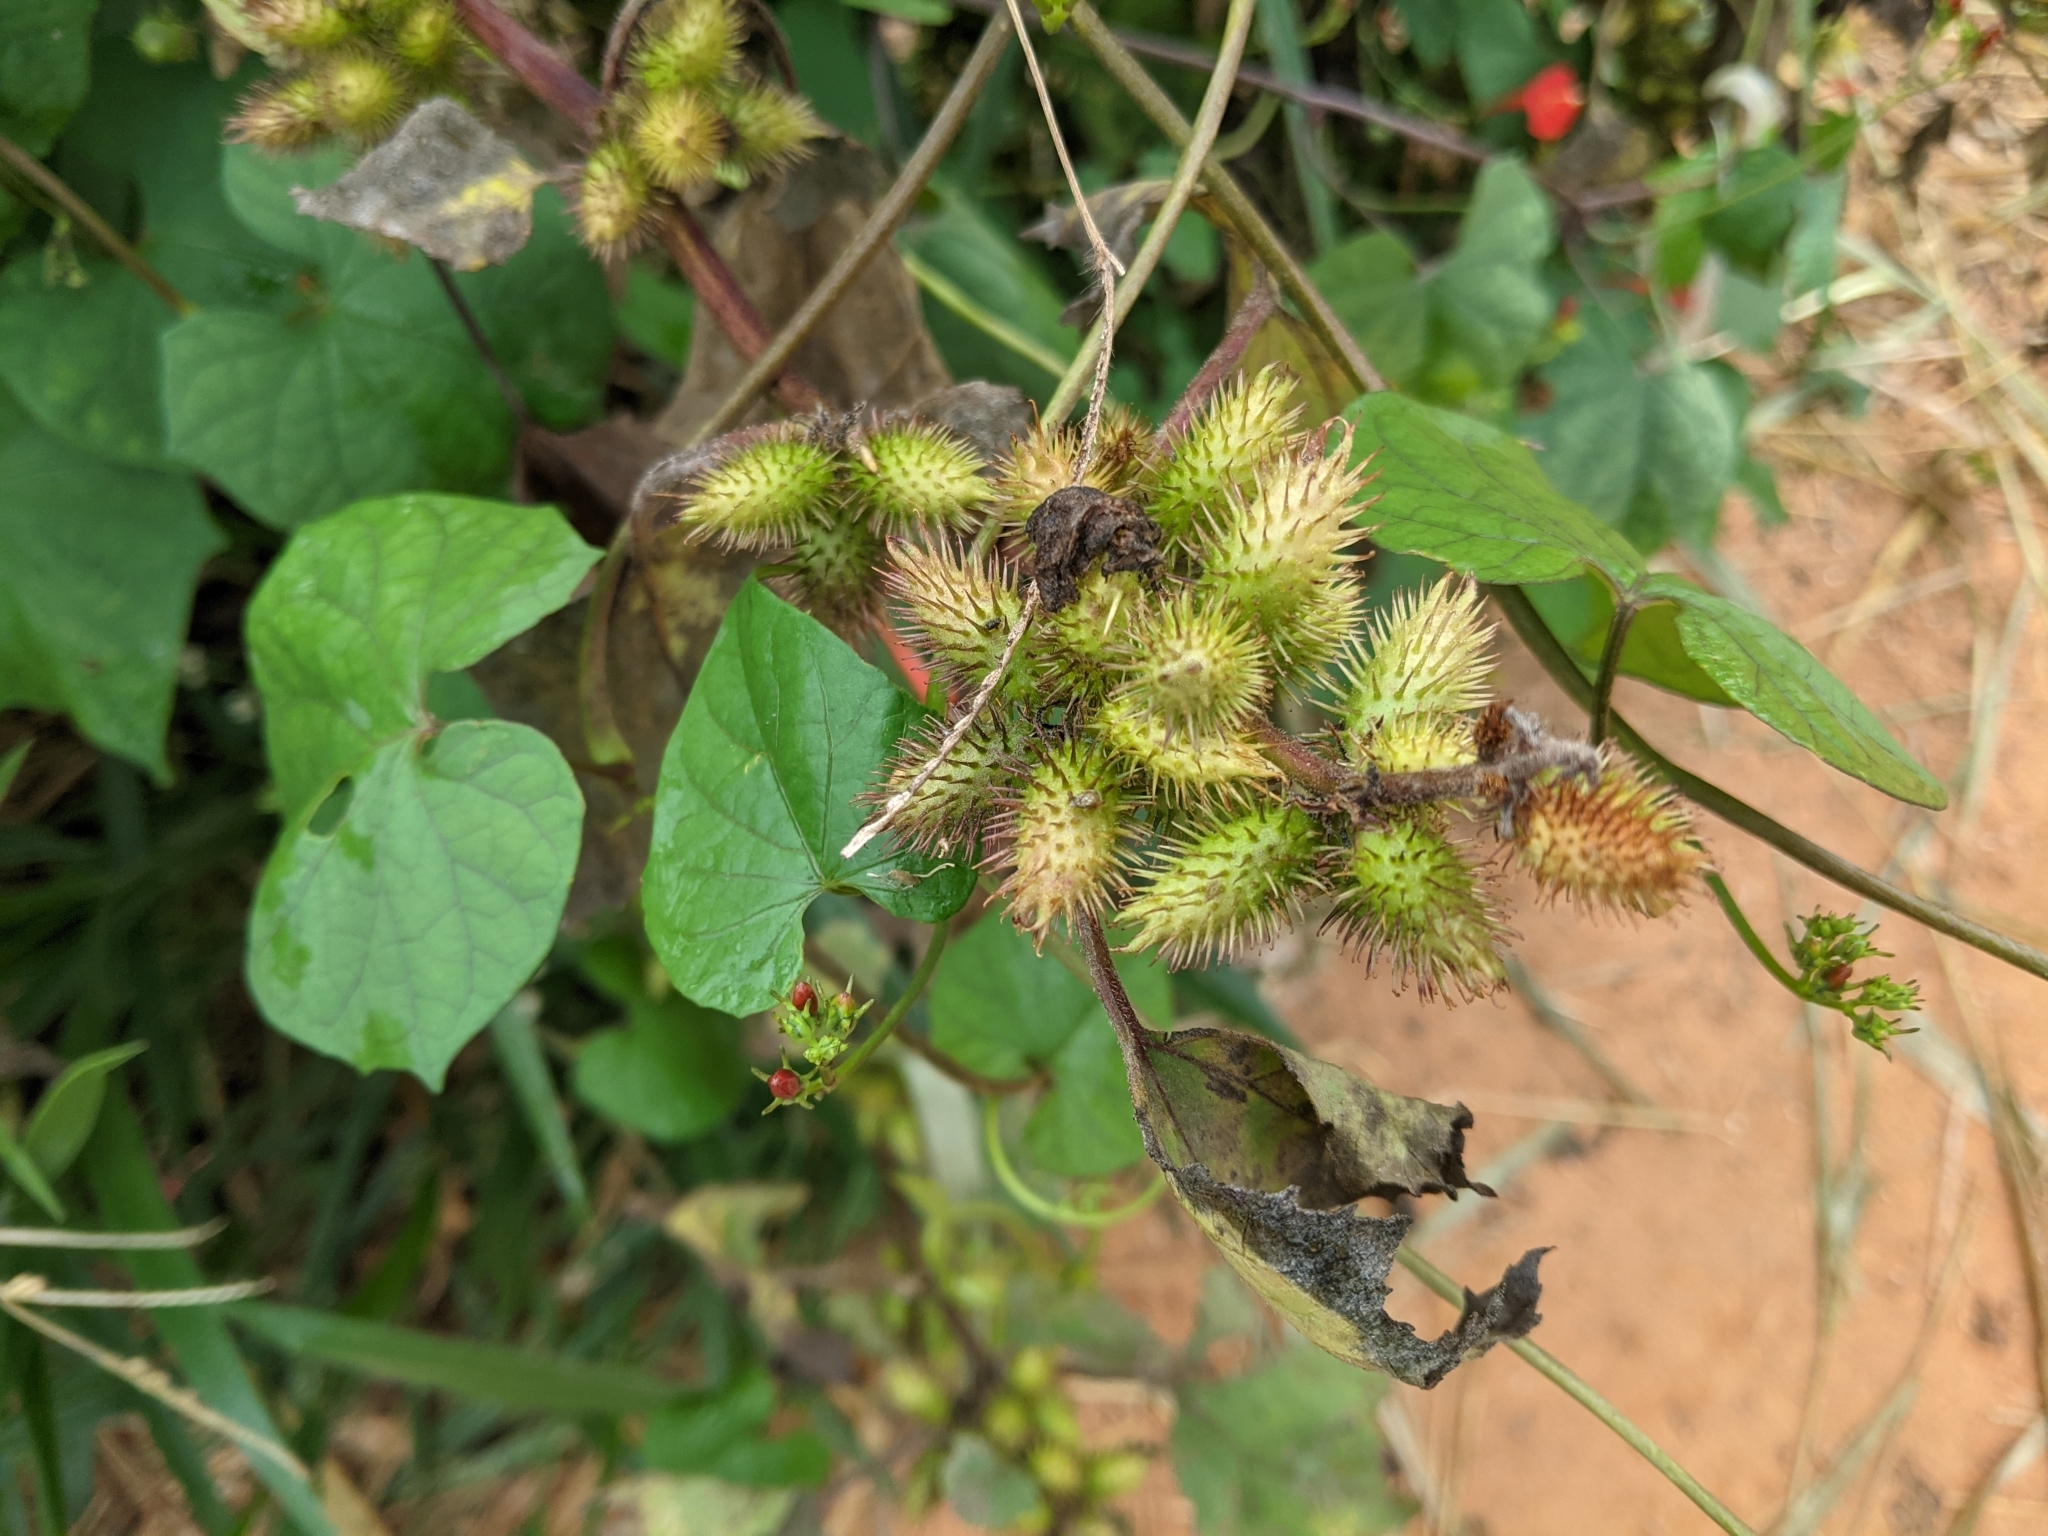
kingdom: Plantae
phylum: Tracheophyta
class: Magnoliopsida
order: Asterales
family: Asteraceae
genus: Xanthium
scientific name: Xanthium strumarium
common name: Rough cocklebur
